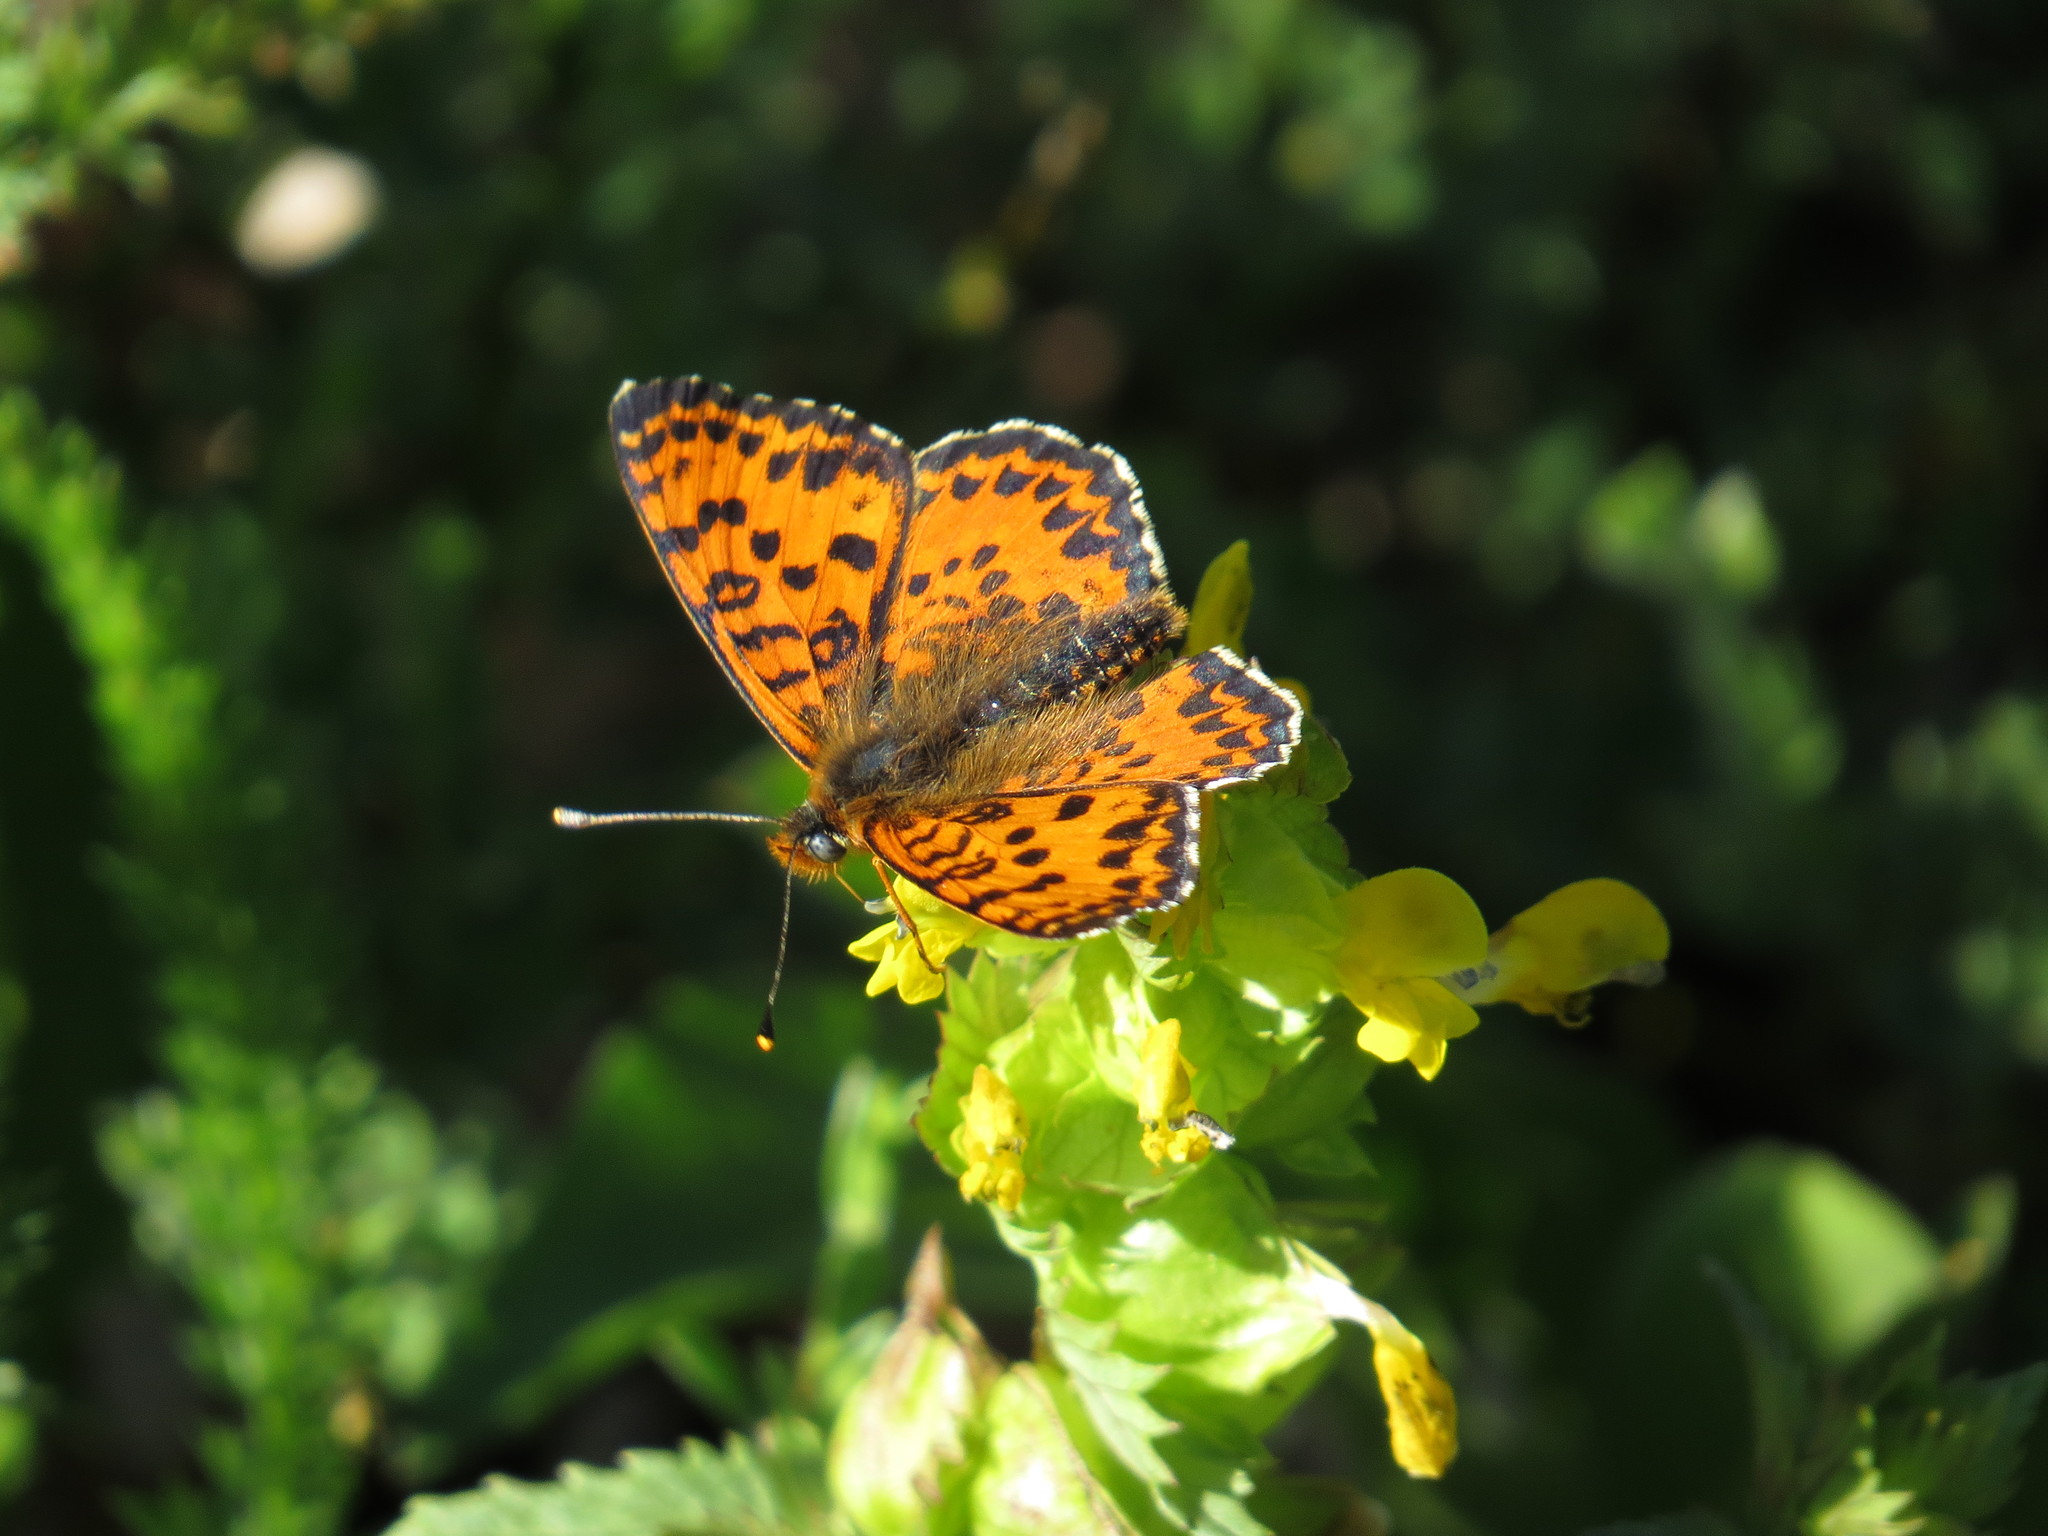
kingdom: Animalia
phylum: Arthropoda
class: Insecta
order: Lepidoptera
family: Nymphalidae
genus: Melitaea
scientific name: Melitaea didyma
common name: Spotted fritillary
